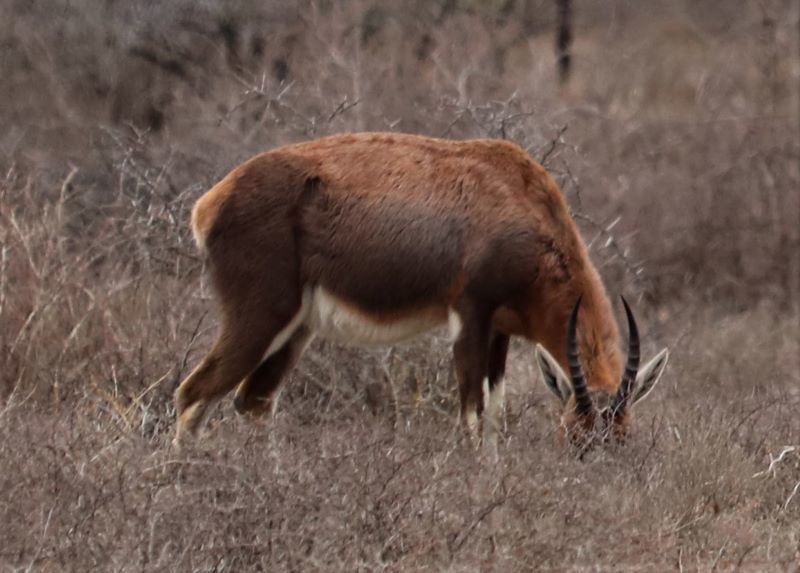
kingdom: Animalia
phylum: Chordata
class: Mammalia
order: Artiodactyla
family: Bovidae
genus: Damaliscus
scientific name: Damaliscus pygargus
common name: Bontebok
